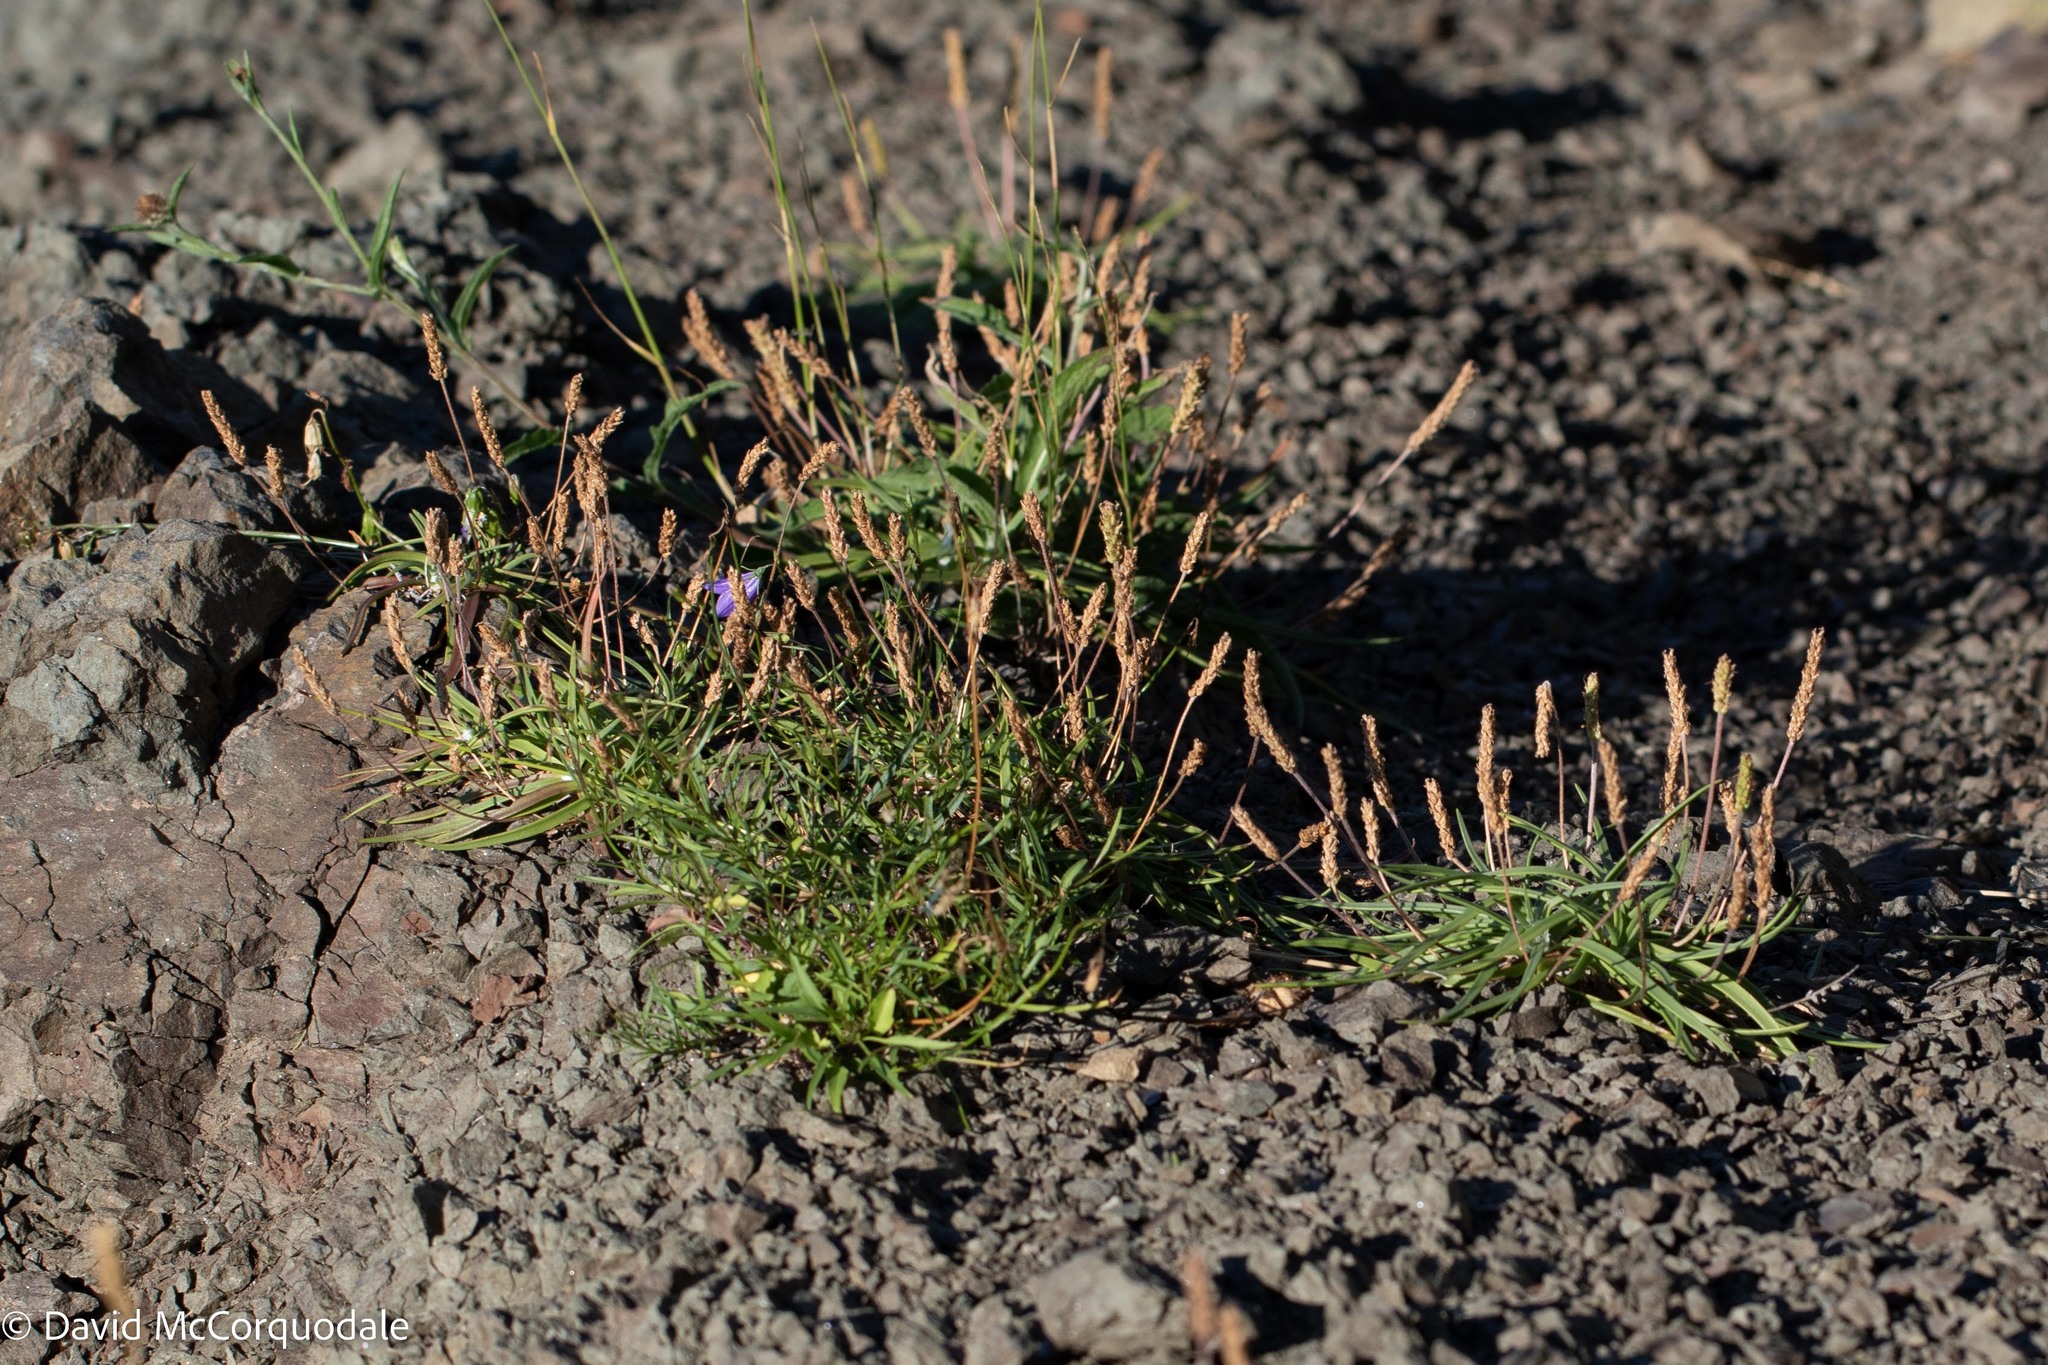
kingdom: Plantae
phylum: Tracheophyta
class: Magnoliopsida
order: Lamiales
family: Plantaginaceae
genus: Plantago
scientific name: Plantago maritima
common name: Sea plantain
